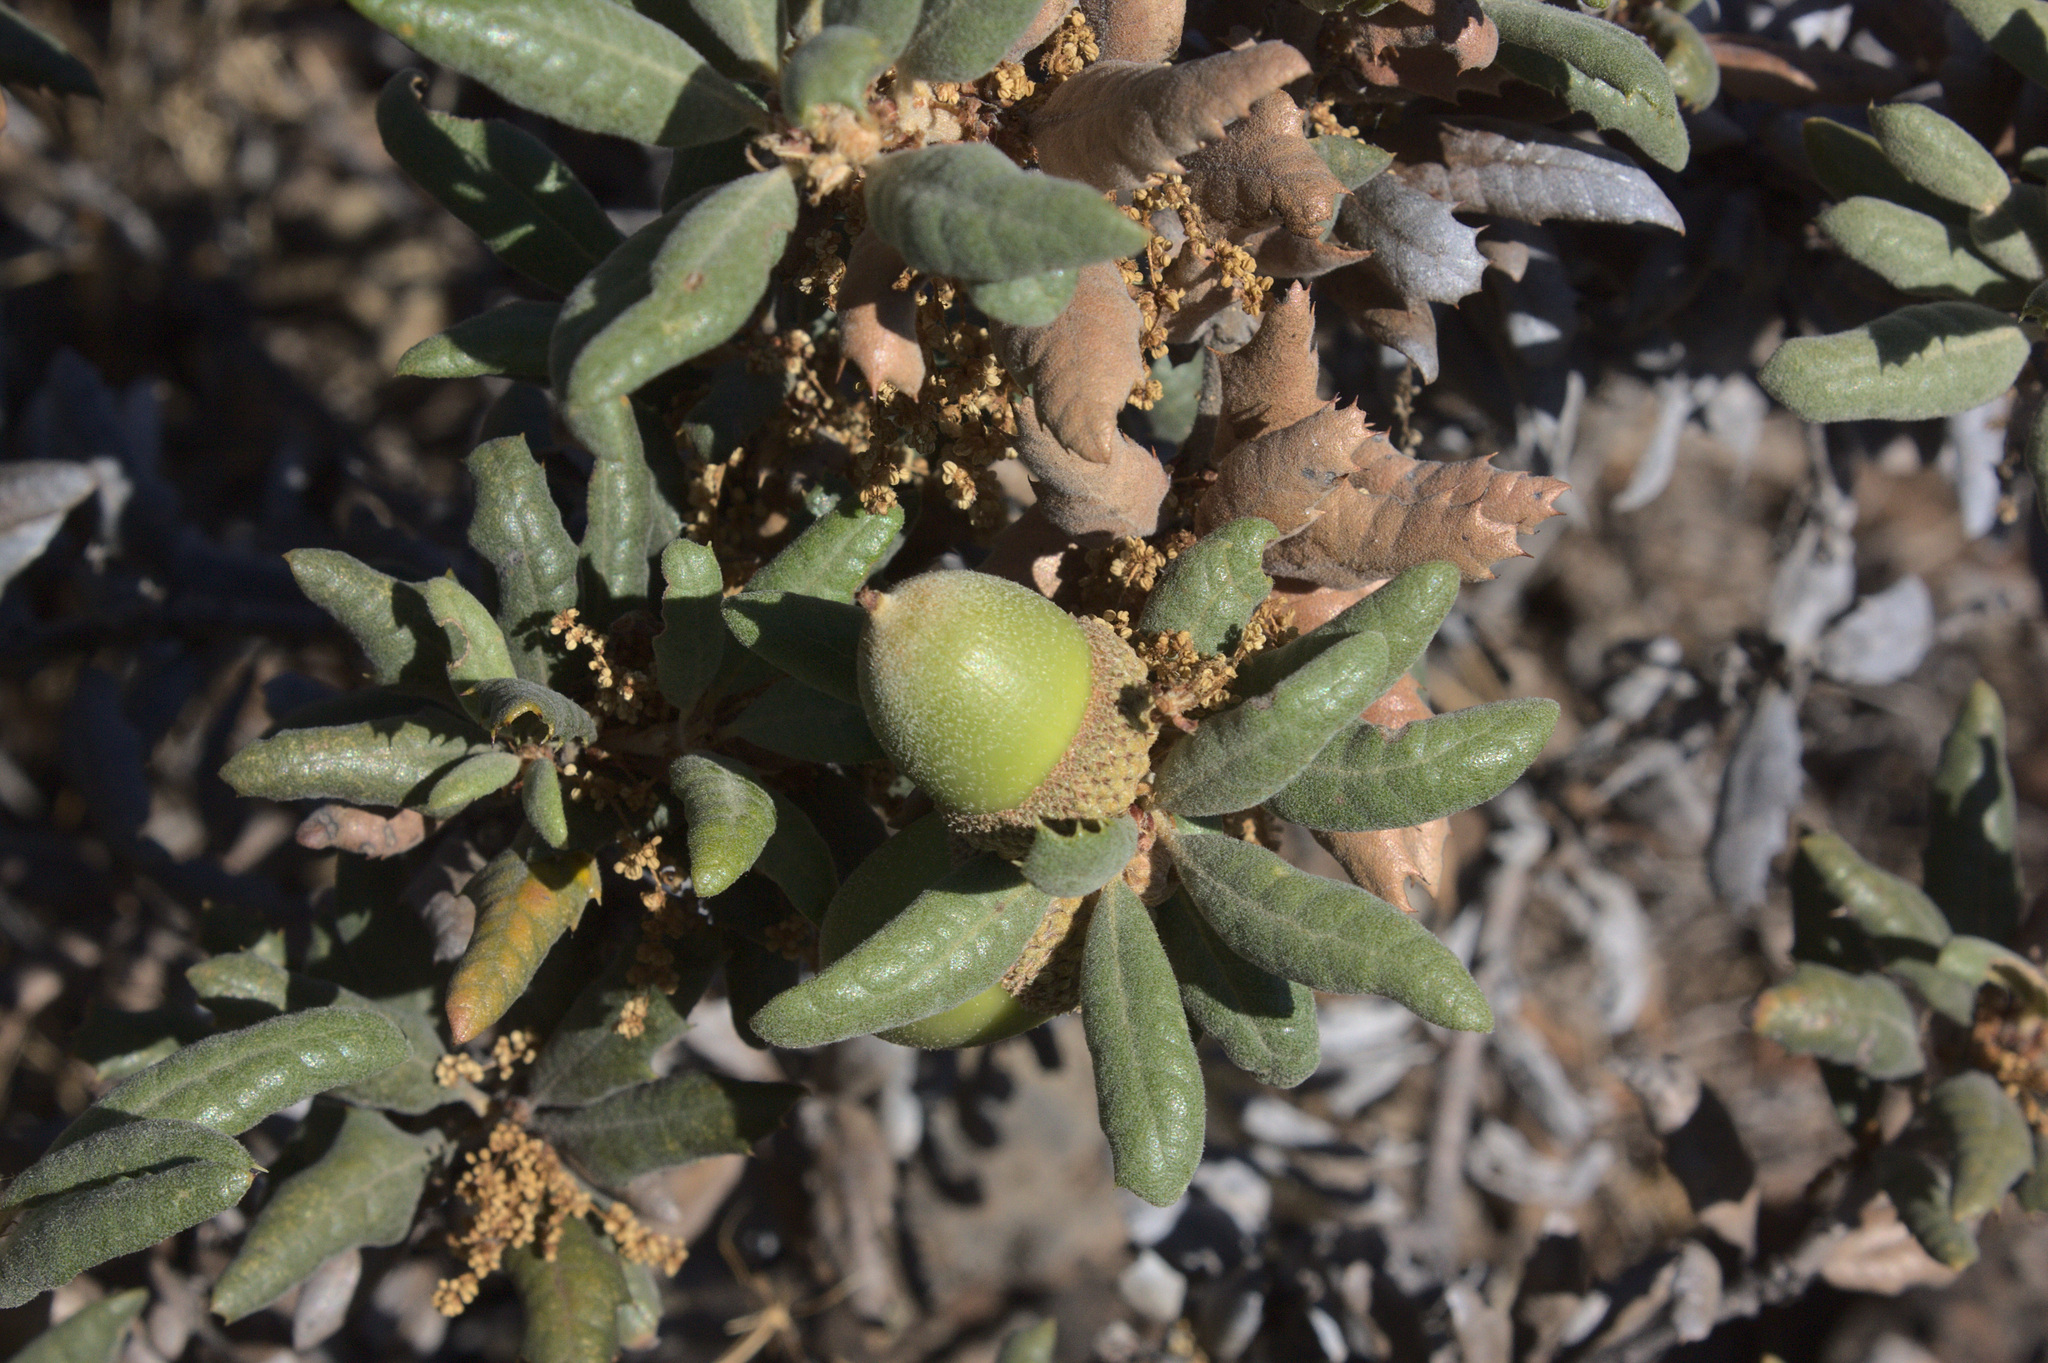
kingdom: Plantae
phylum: Tracheophyta
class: Magnoliopsida
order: Fagales
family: Fagaceae
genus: Quercus
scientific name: Quercus durata
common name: Leather oak
